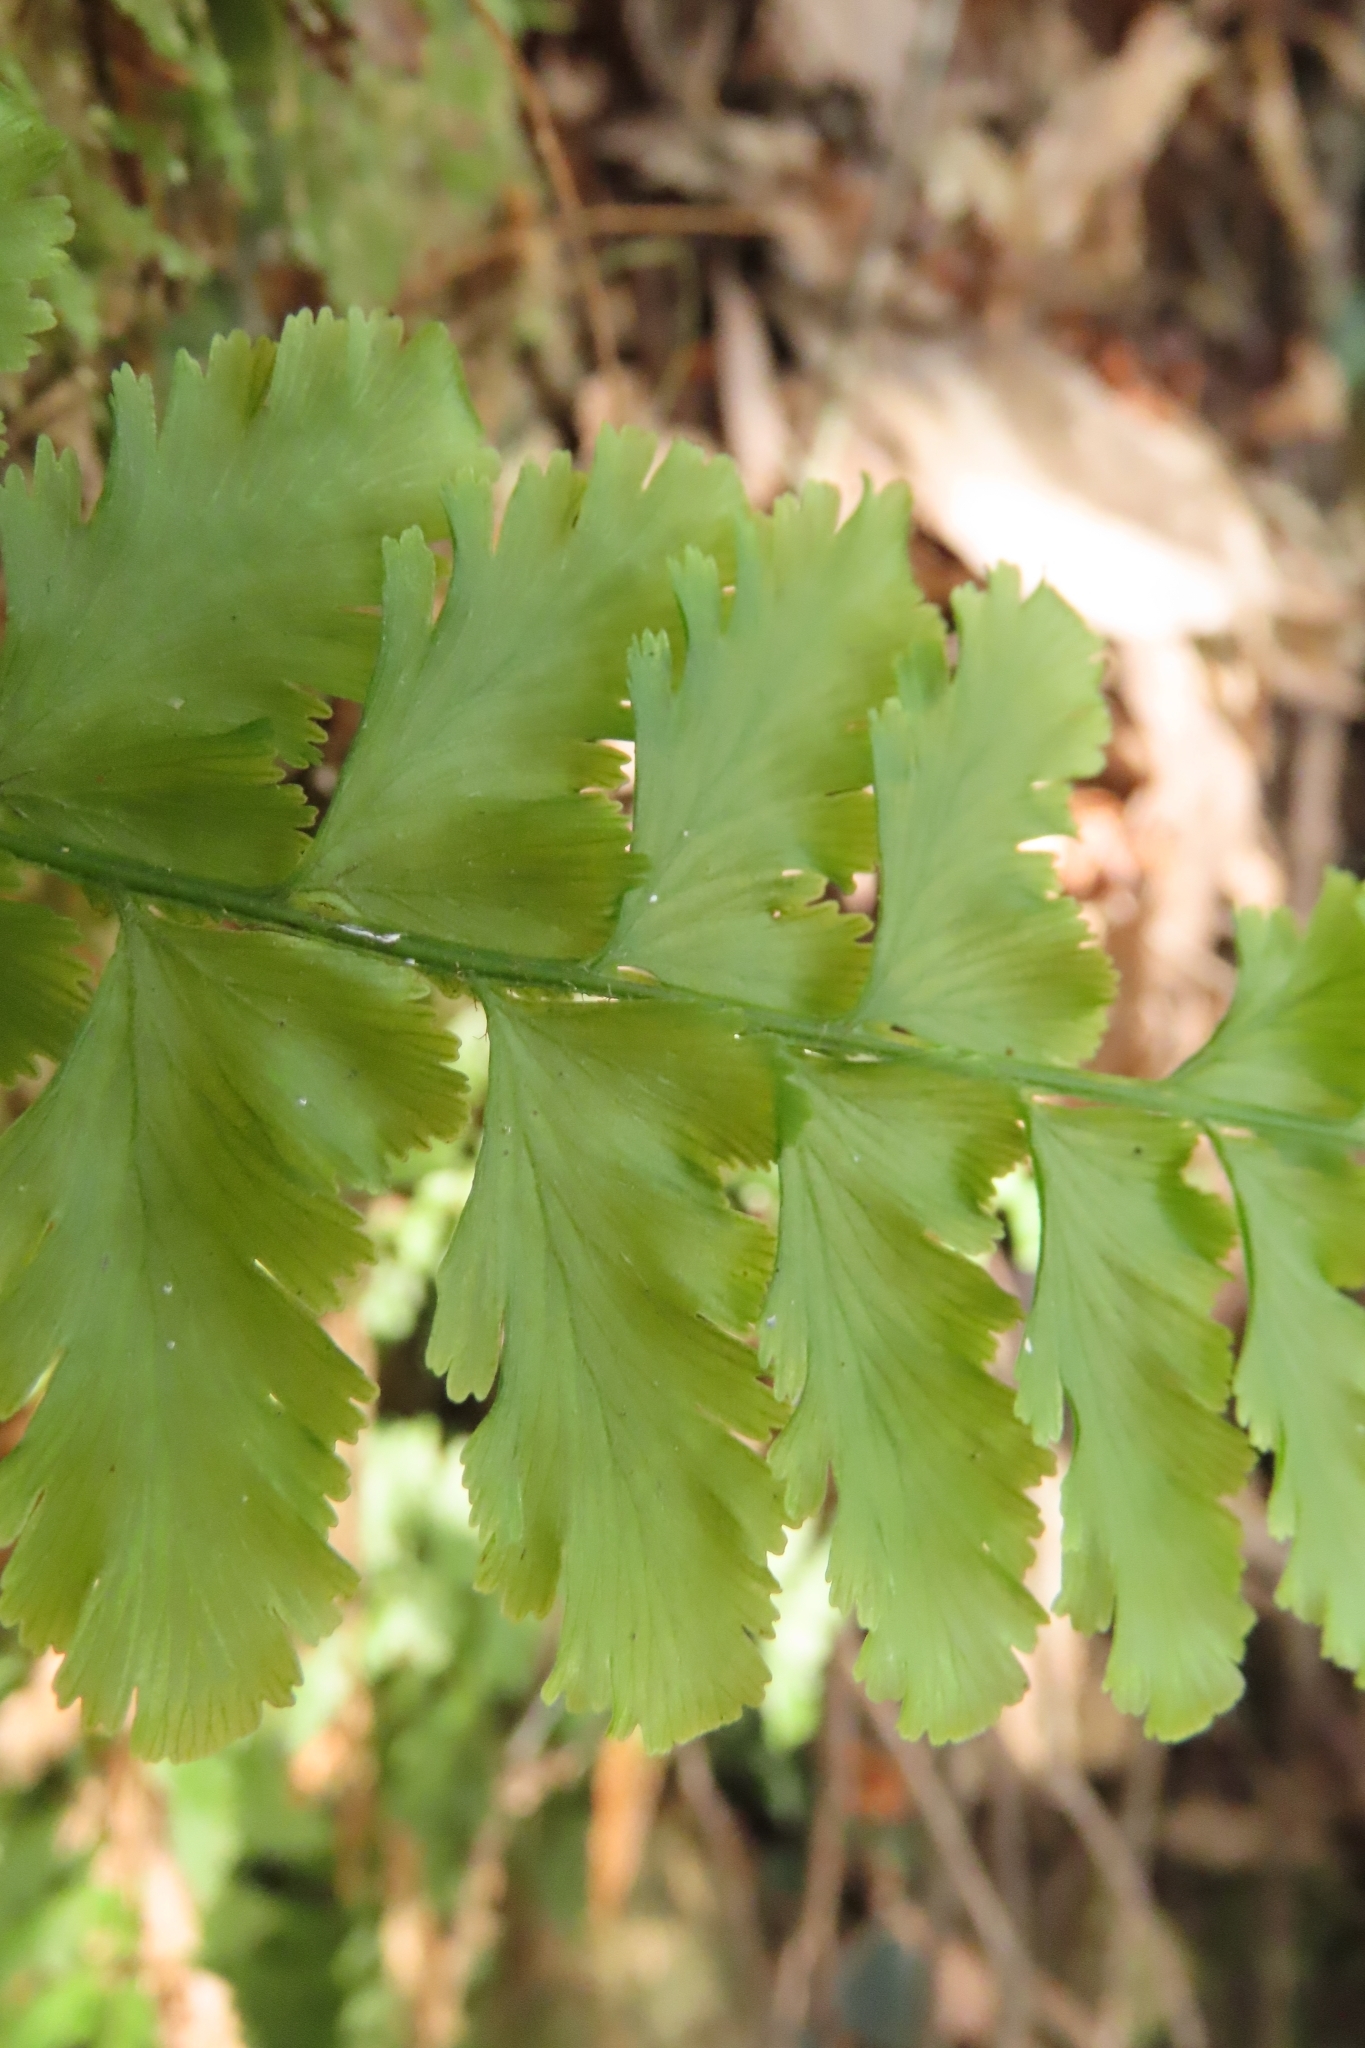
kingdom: Plantae
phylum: Tracheophyta
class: Polypodiopsida
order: Hymenophyllales
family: Hymenophyllaceae
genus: Vandenboschia
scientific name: Vandenboschia auriculata
